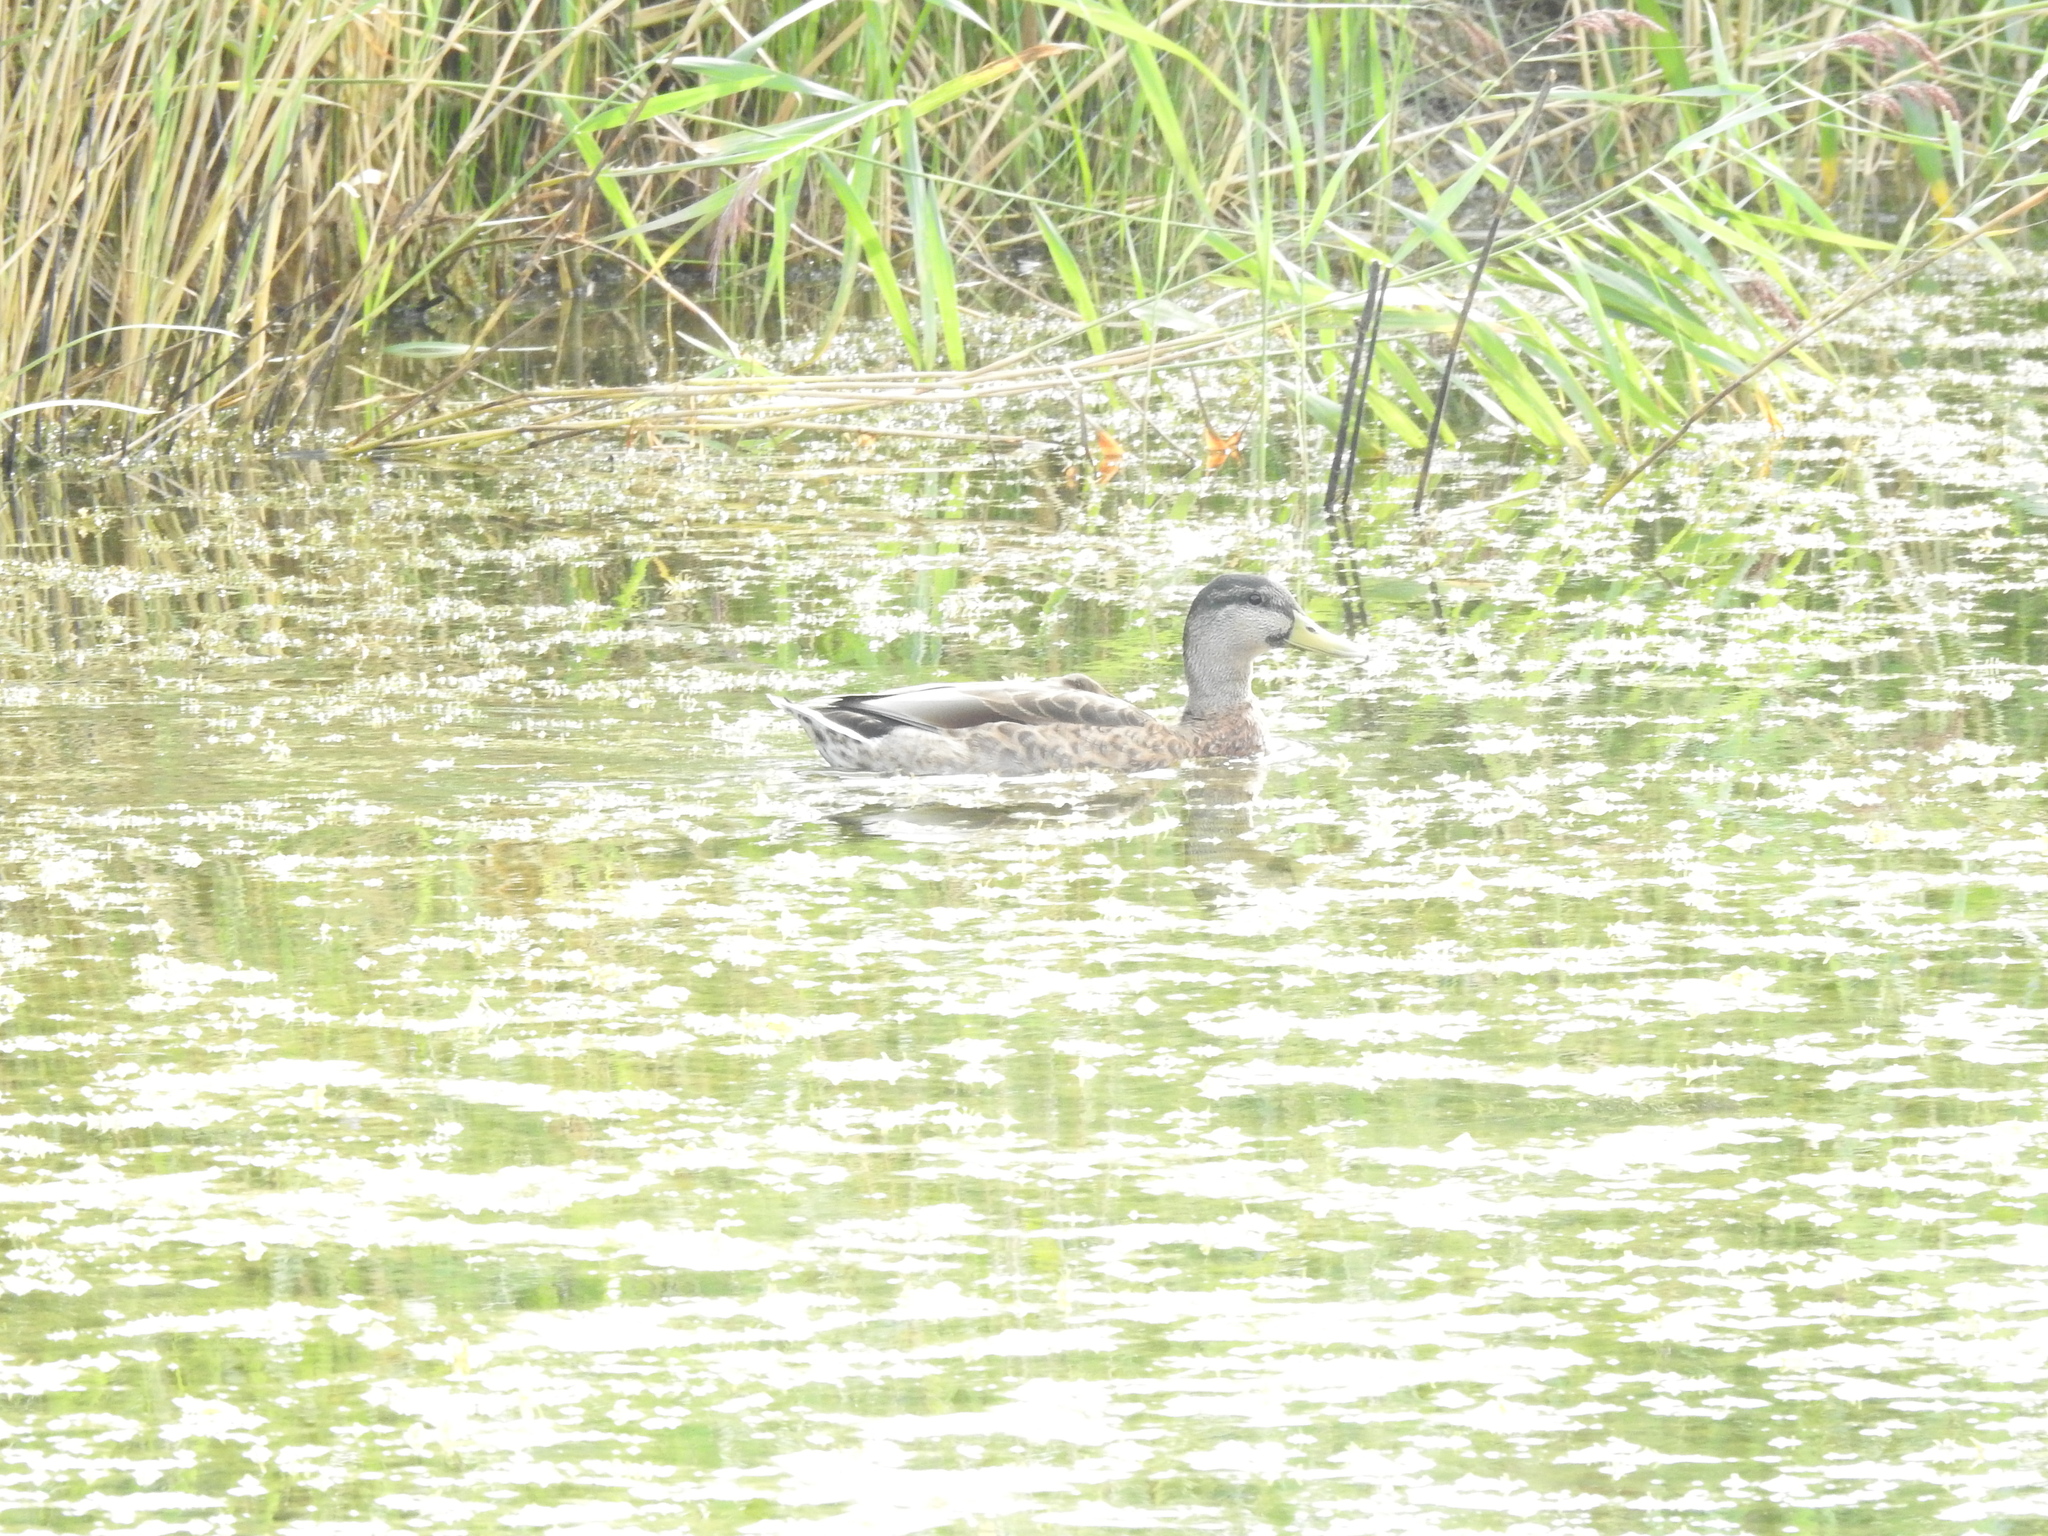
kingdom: Animalia
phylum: Chordata
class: Aves
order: Anseriformes
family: Anatidae
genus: Anas
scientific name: Anas platyrhynchos
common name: Mallard
